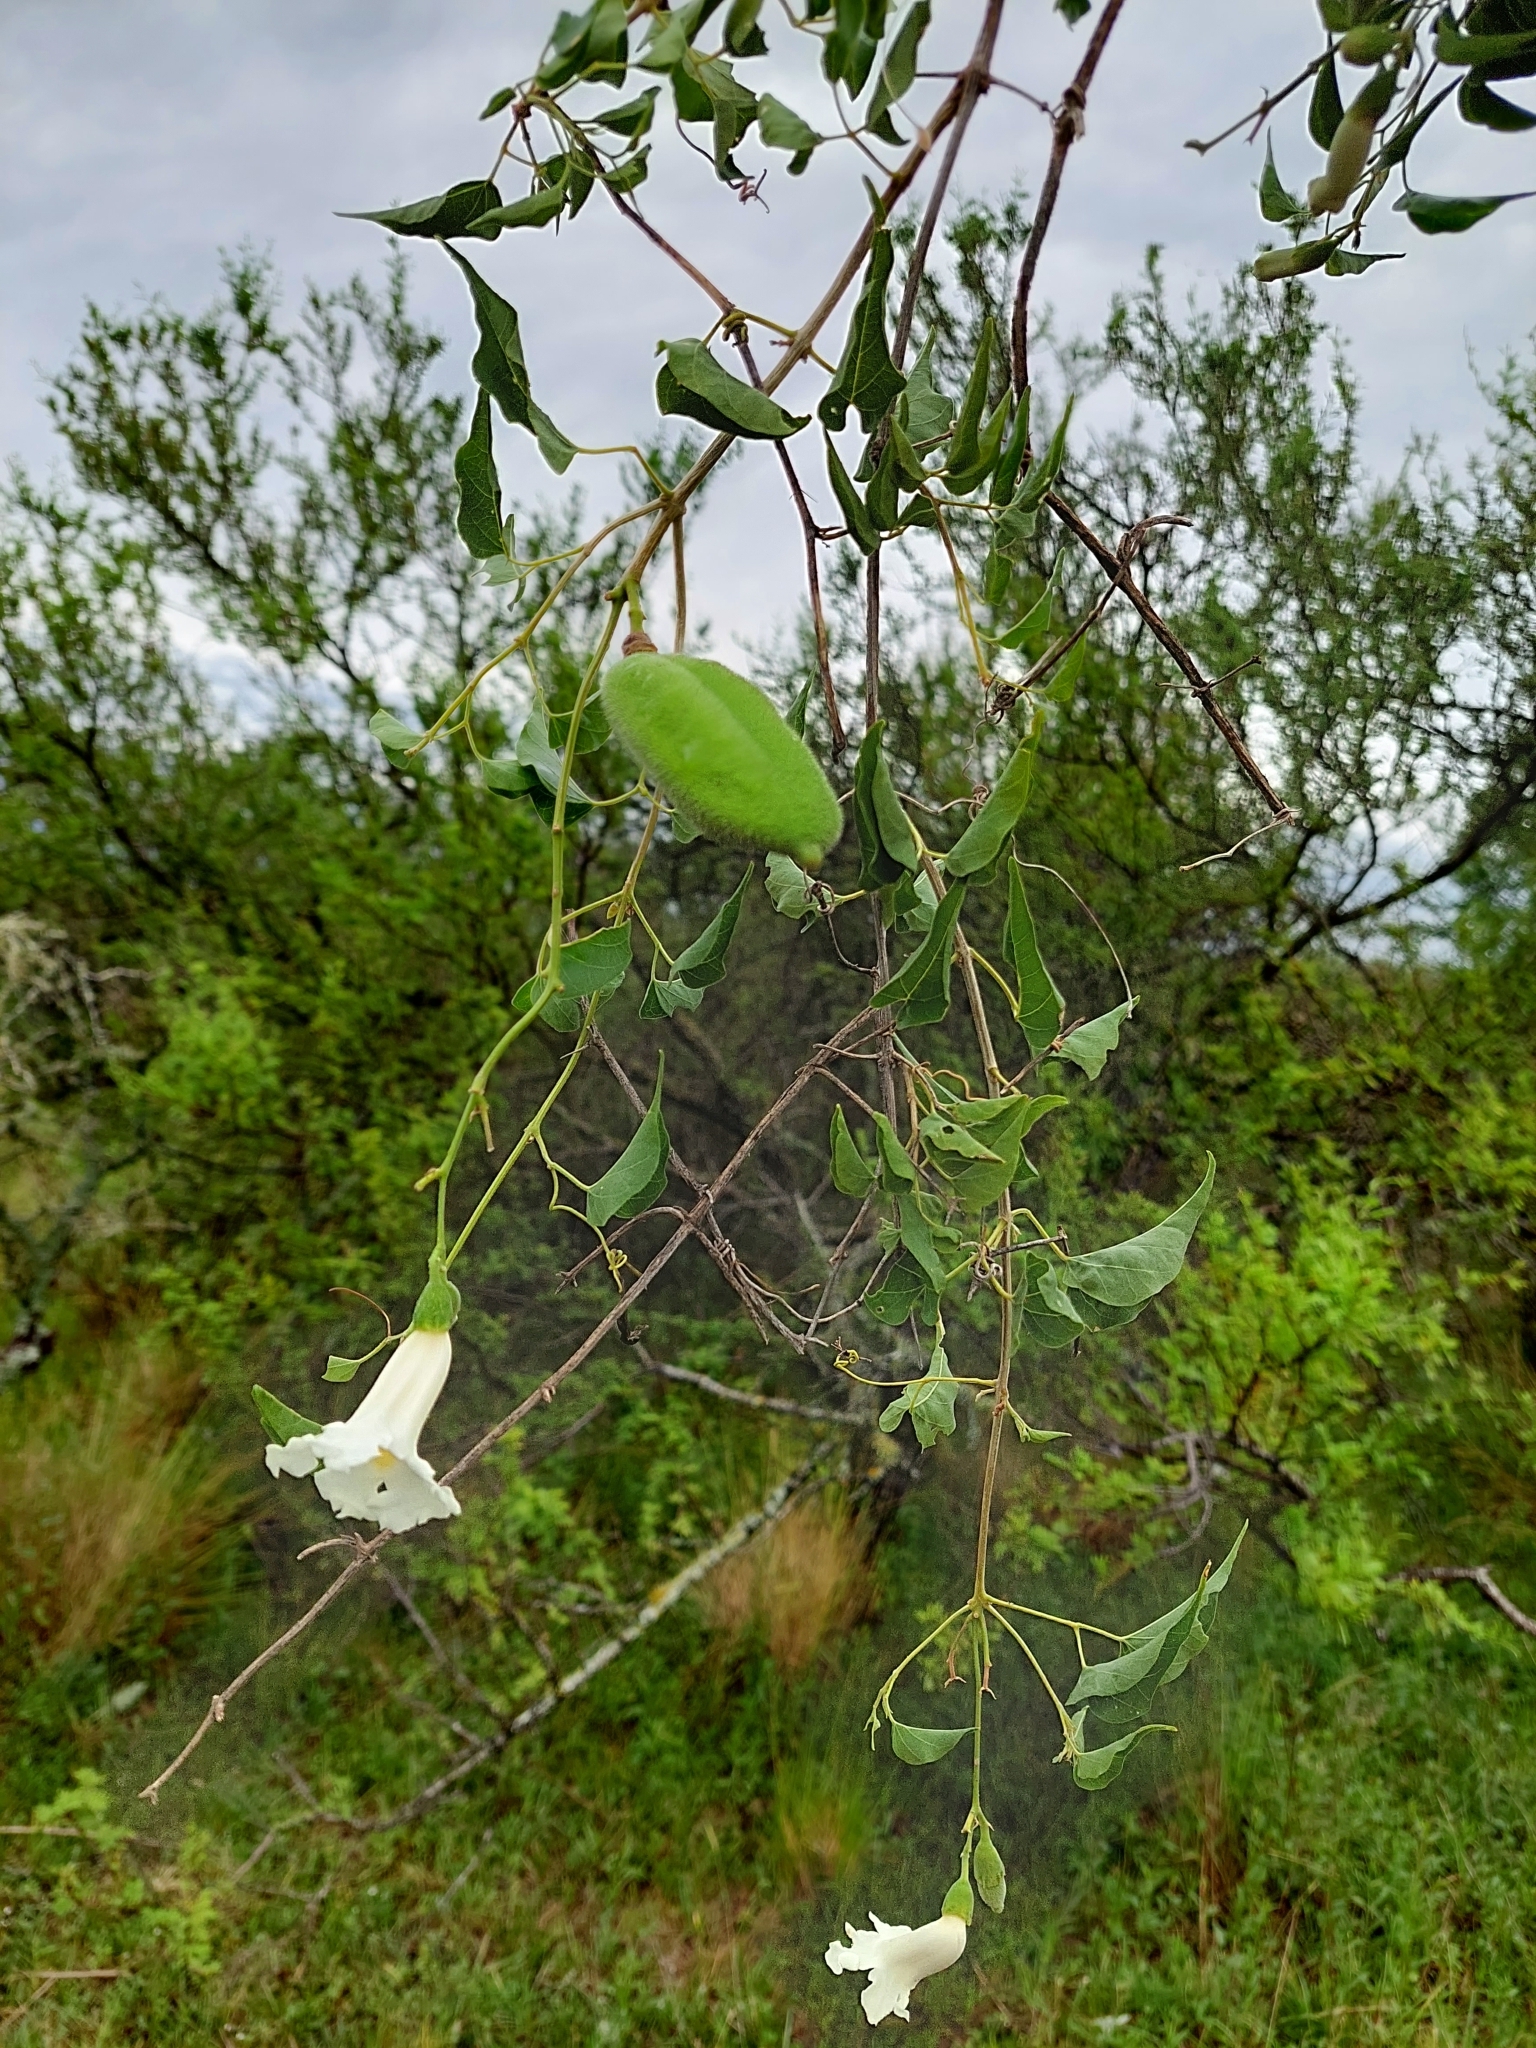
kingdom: Plantae
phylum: Tracheophyta
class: Magnoliopsida
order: Lamiales
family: Bignoniaceae
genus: Amphilophium
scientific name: Amphilophium carolinae
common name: Monkey's-comb
